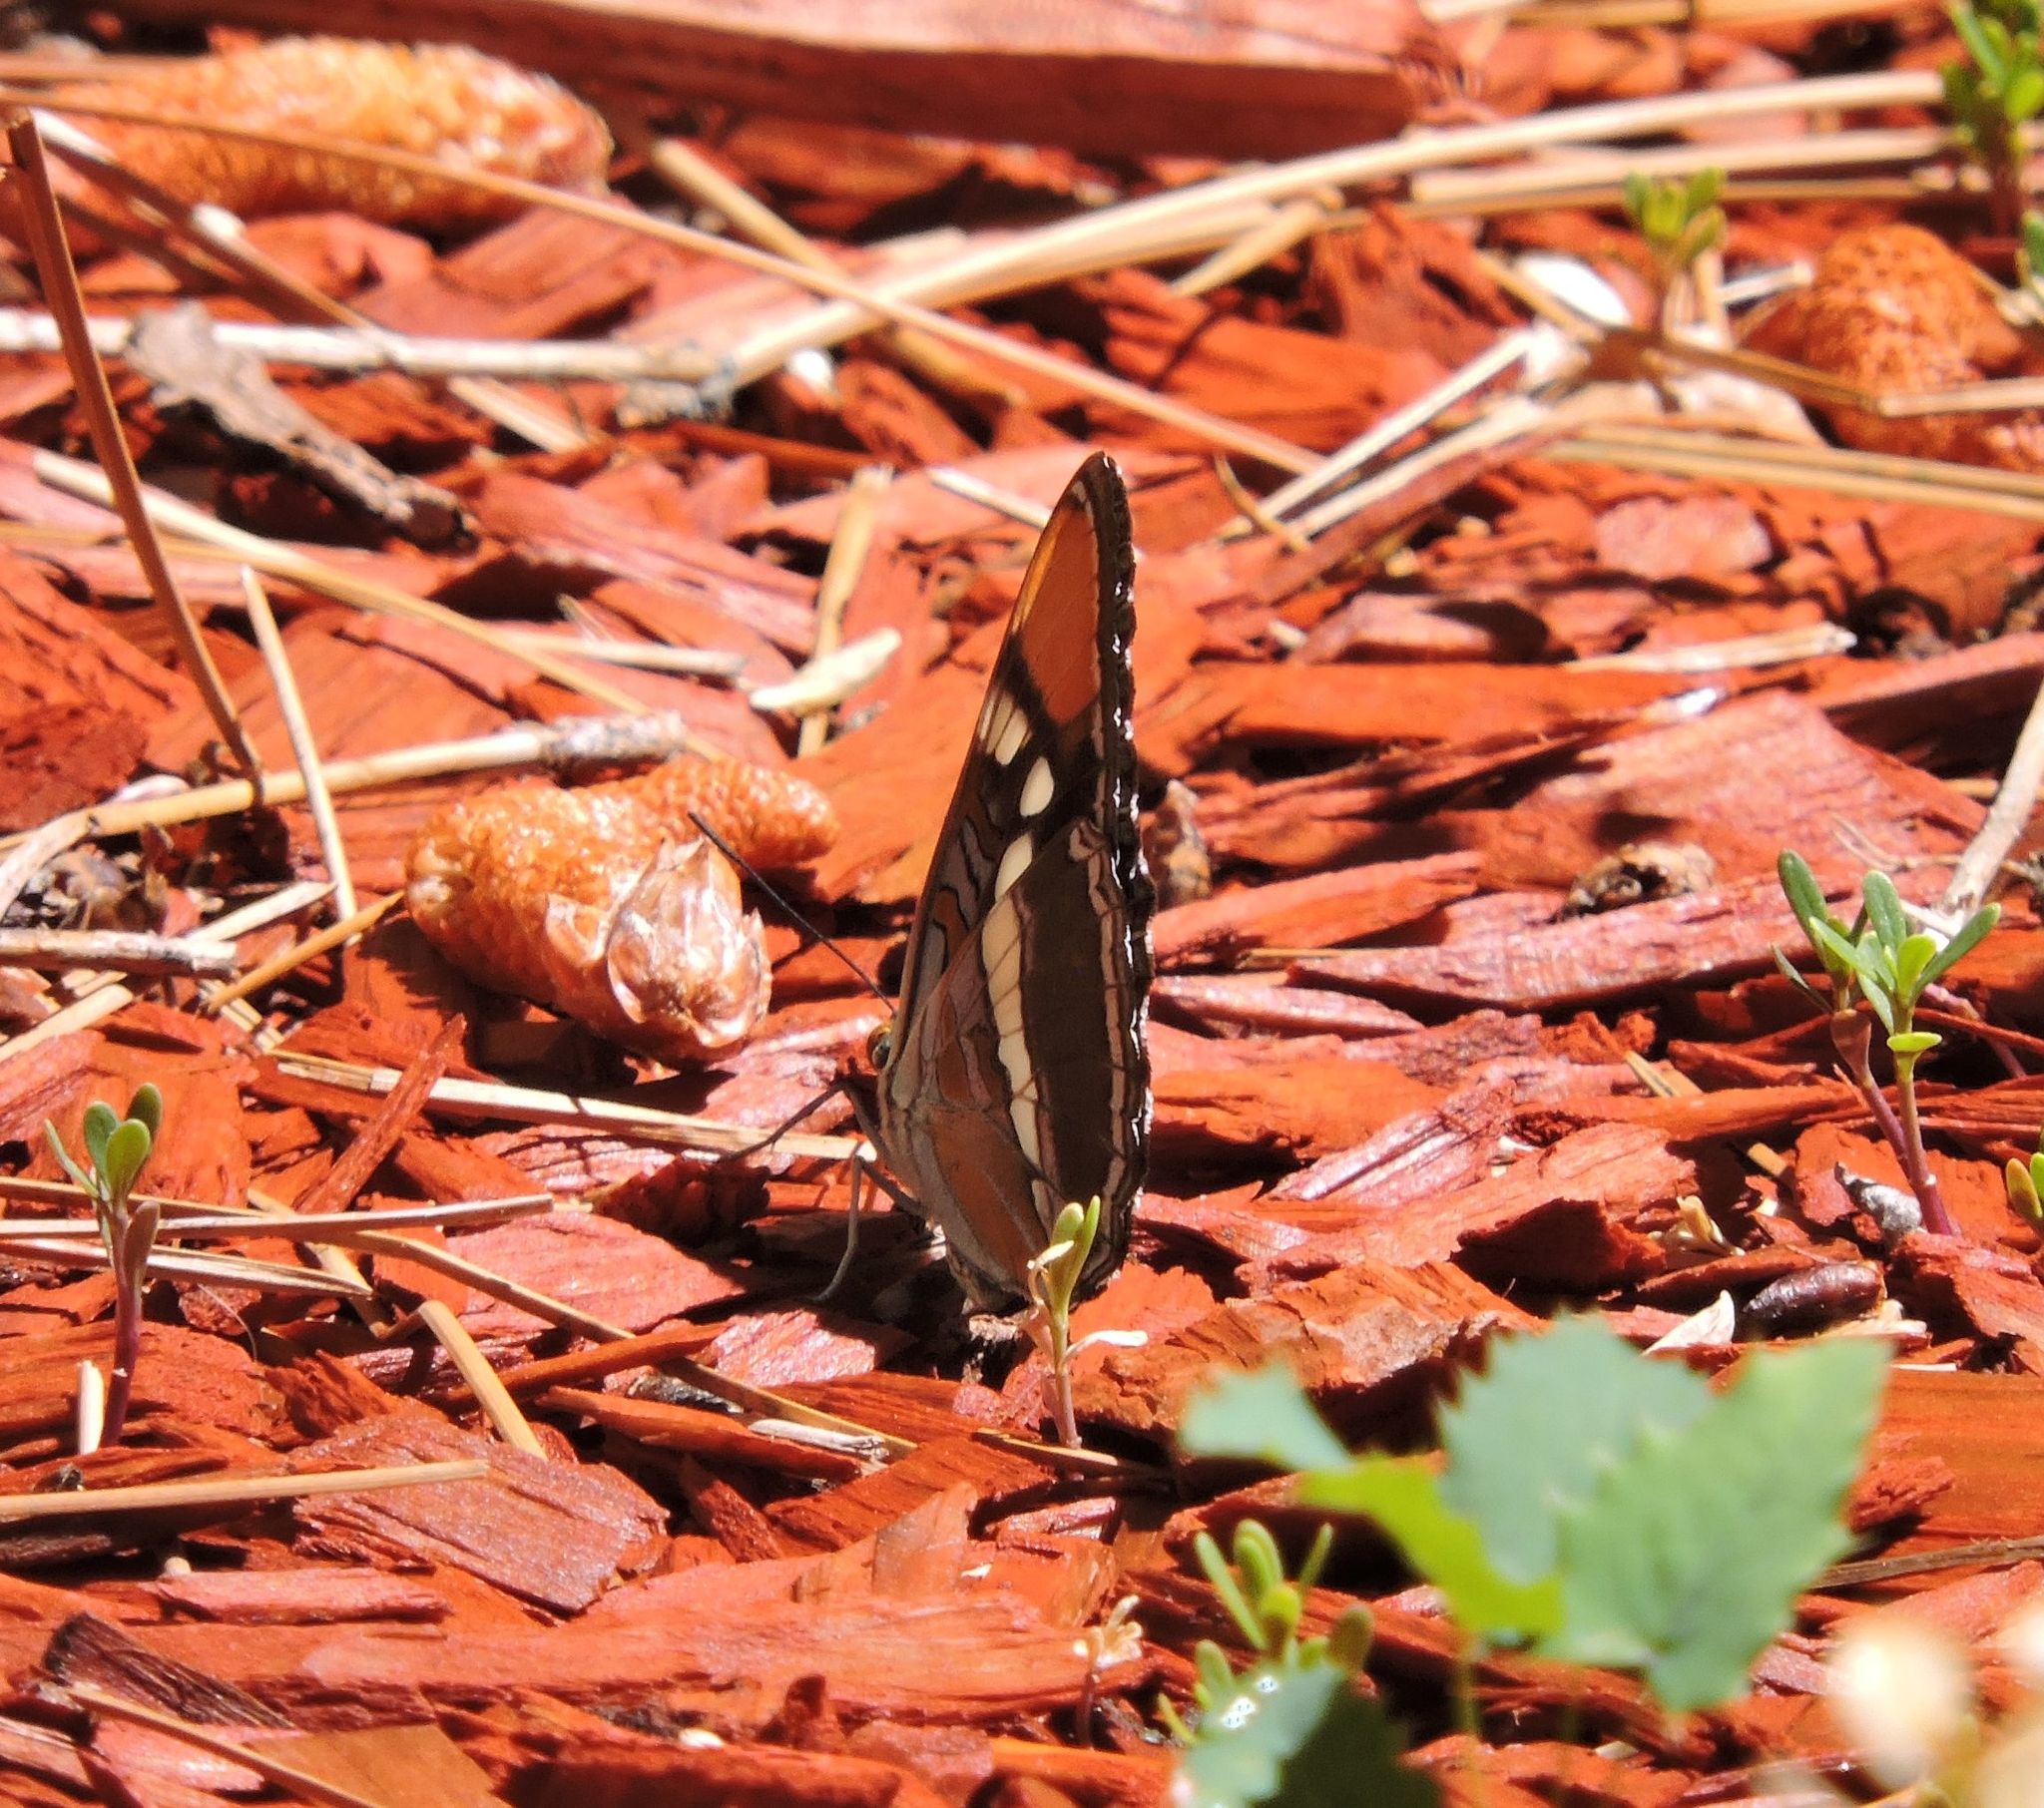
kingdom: Animalia
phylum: Arthropoda
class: Insecta
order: Lepidoptera
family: Nymphalidae
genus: Limenitis
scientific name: Limenitis bredowii
